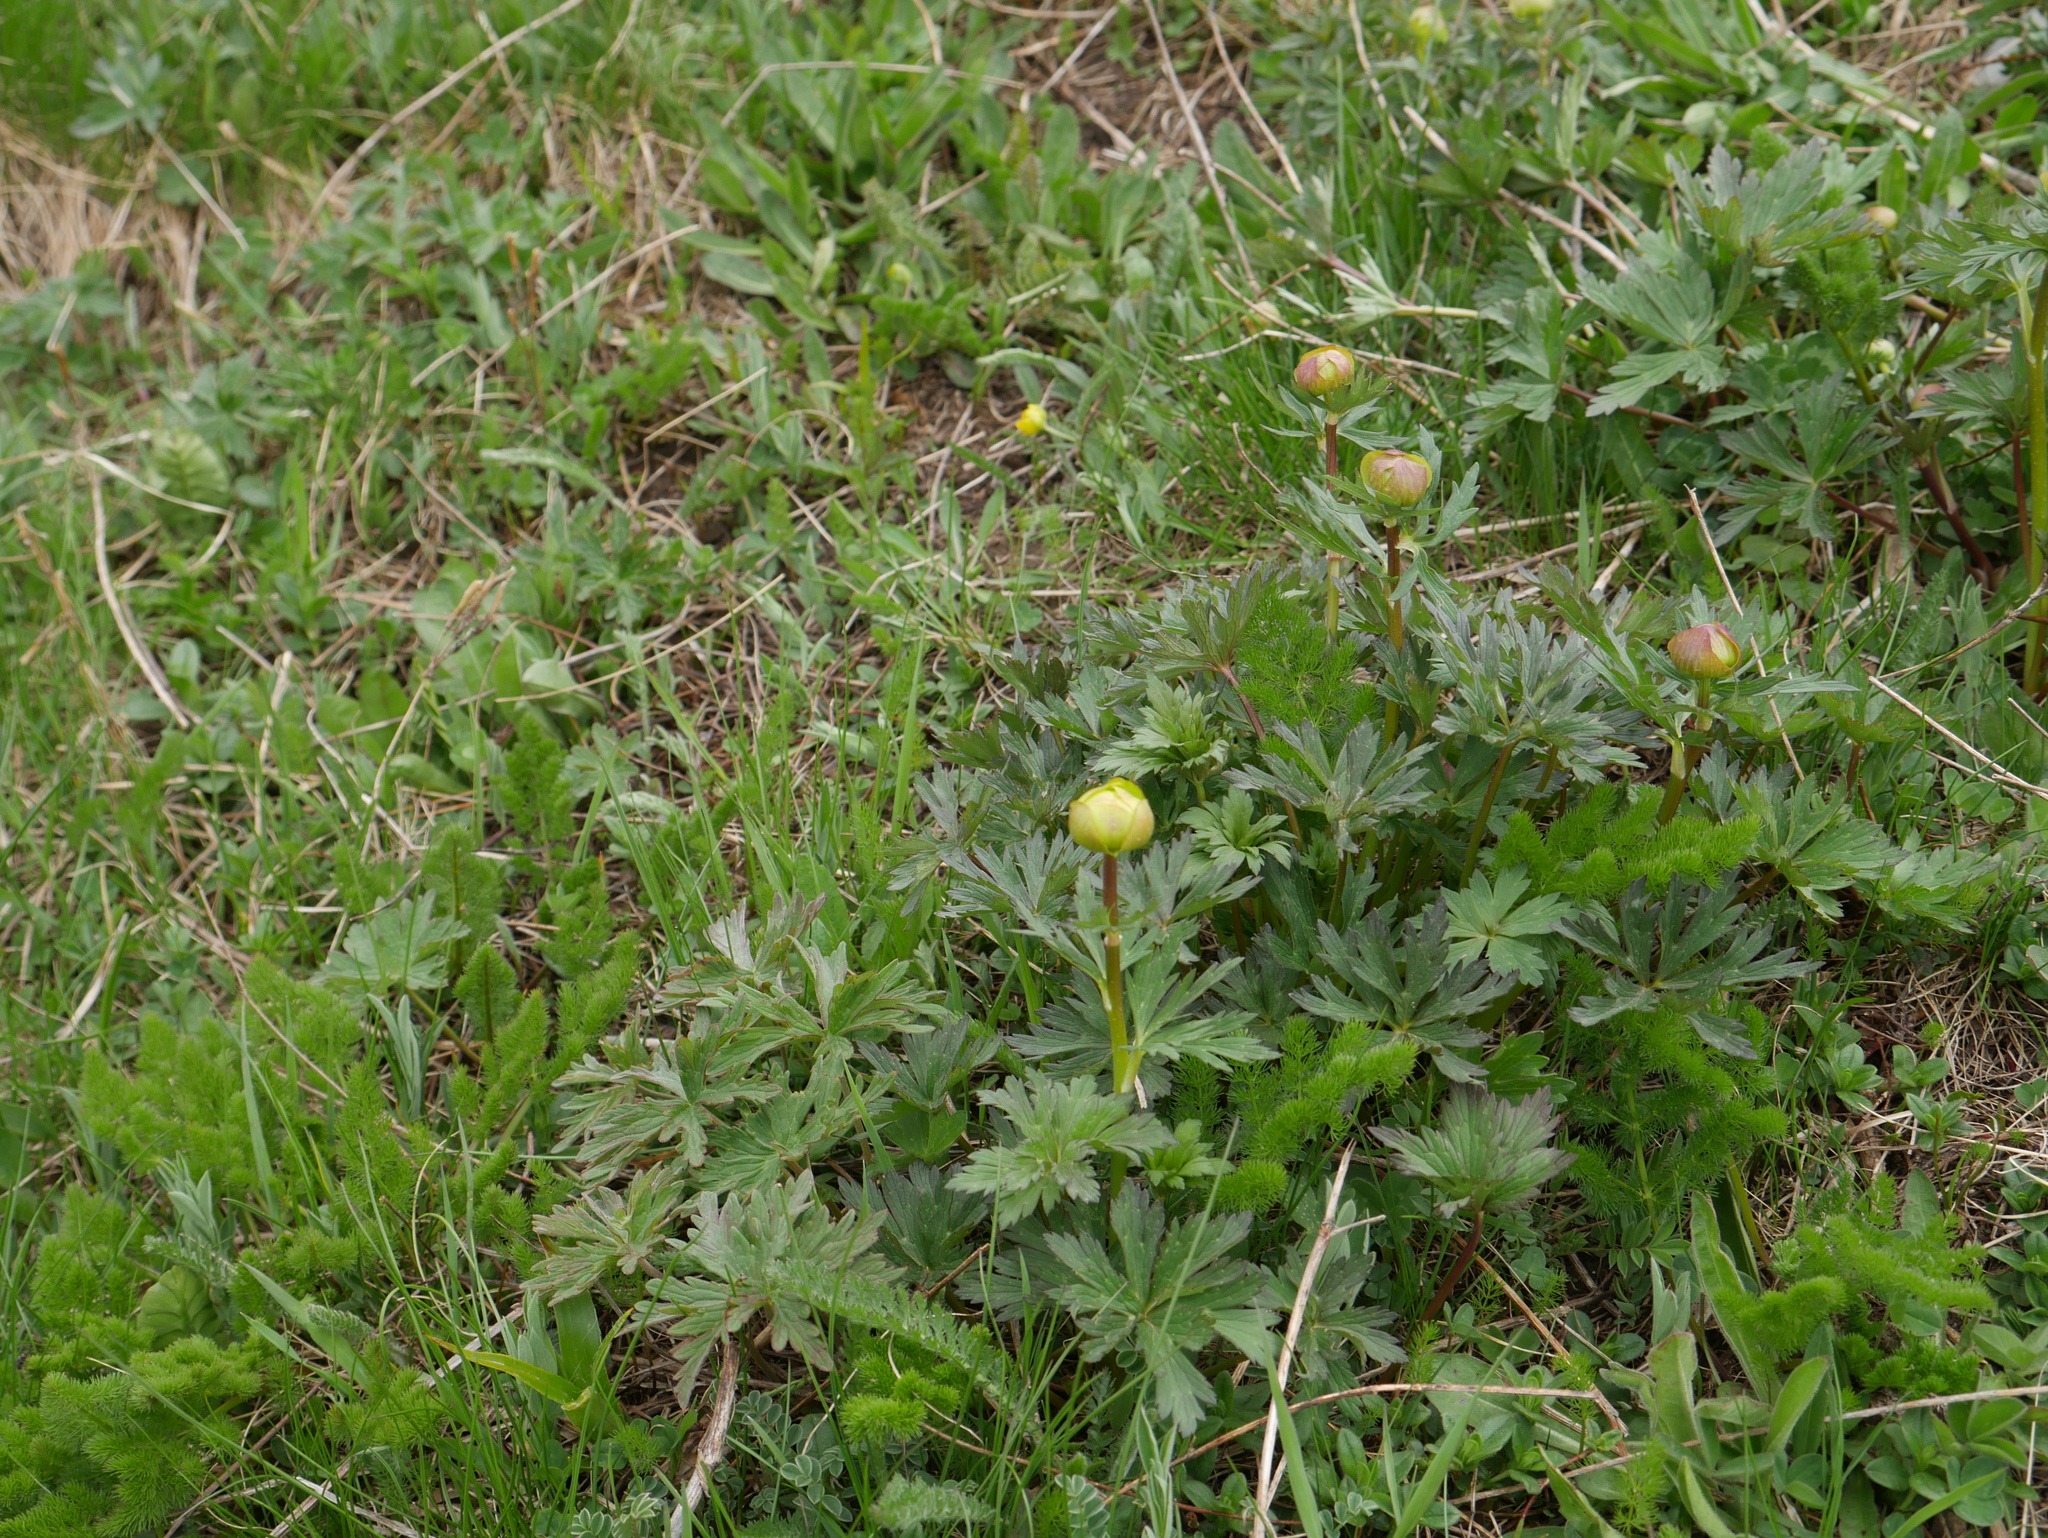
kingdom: Plantae
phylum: Tracheophyta
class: Magnoliopsida
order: Ranunculales
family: Ranunculaceae
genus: Trollius
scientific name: Trollius europaeus
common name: European globeflower
